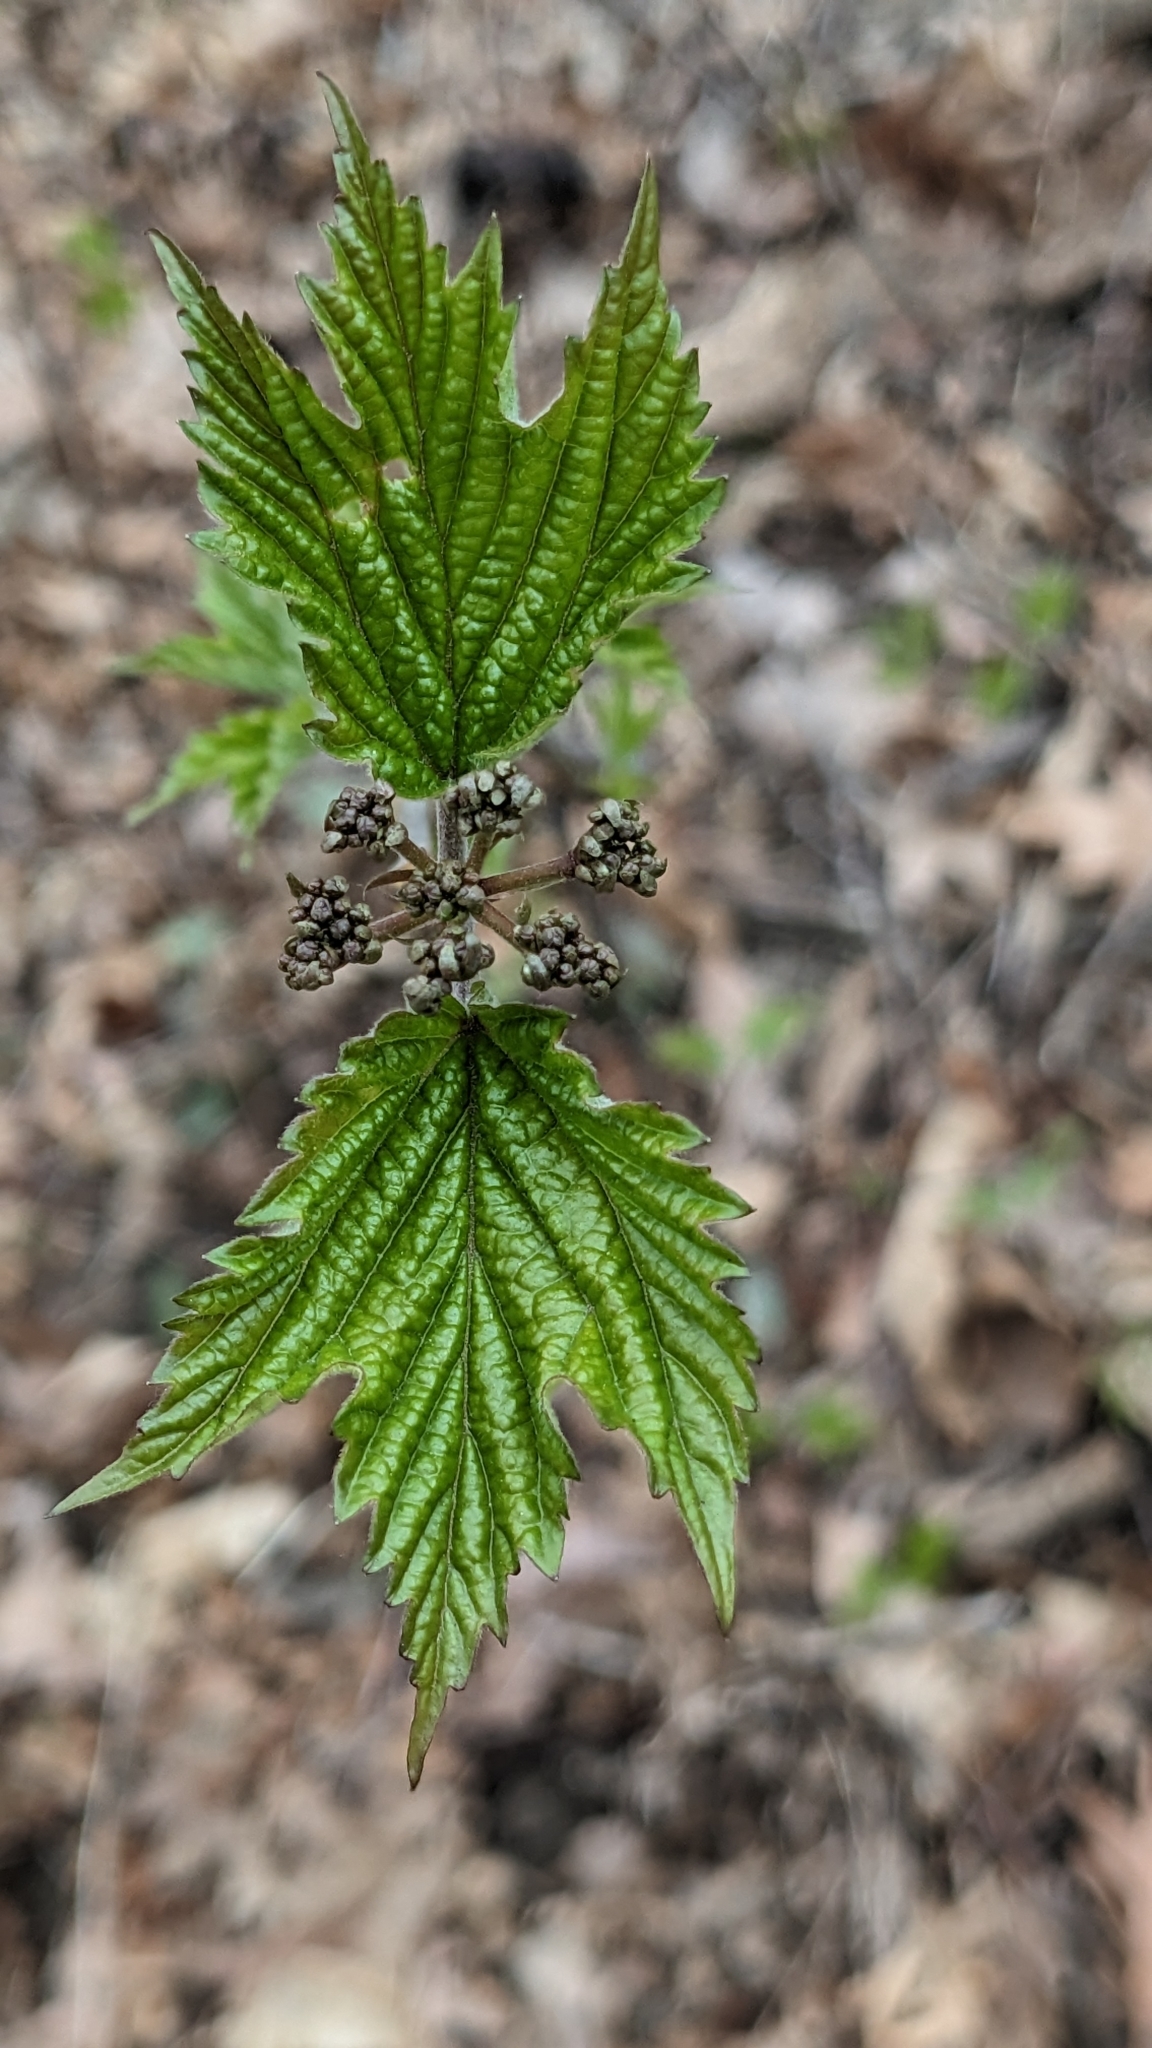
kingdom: Plantae
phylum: Tracheophyta
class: Magnoliopsida
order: Dipsacales
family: Viburnaceae
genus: Viburnum
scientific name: Viburnum acerifolium
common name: Dockmackie
